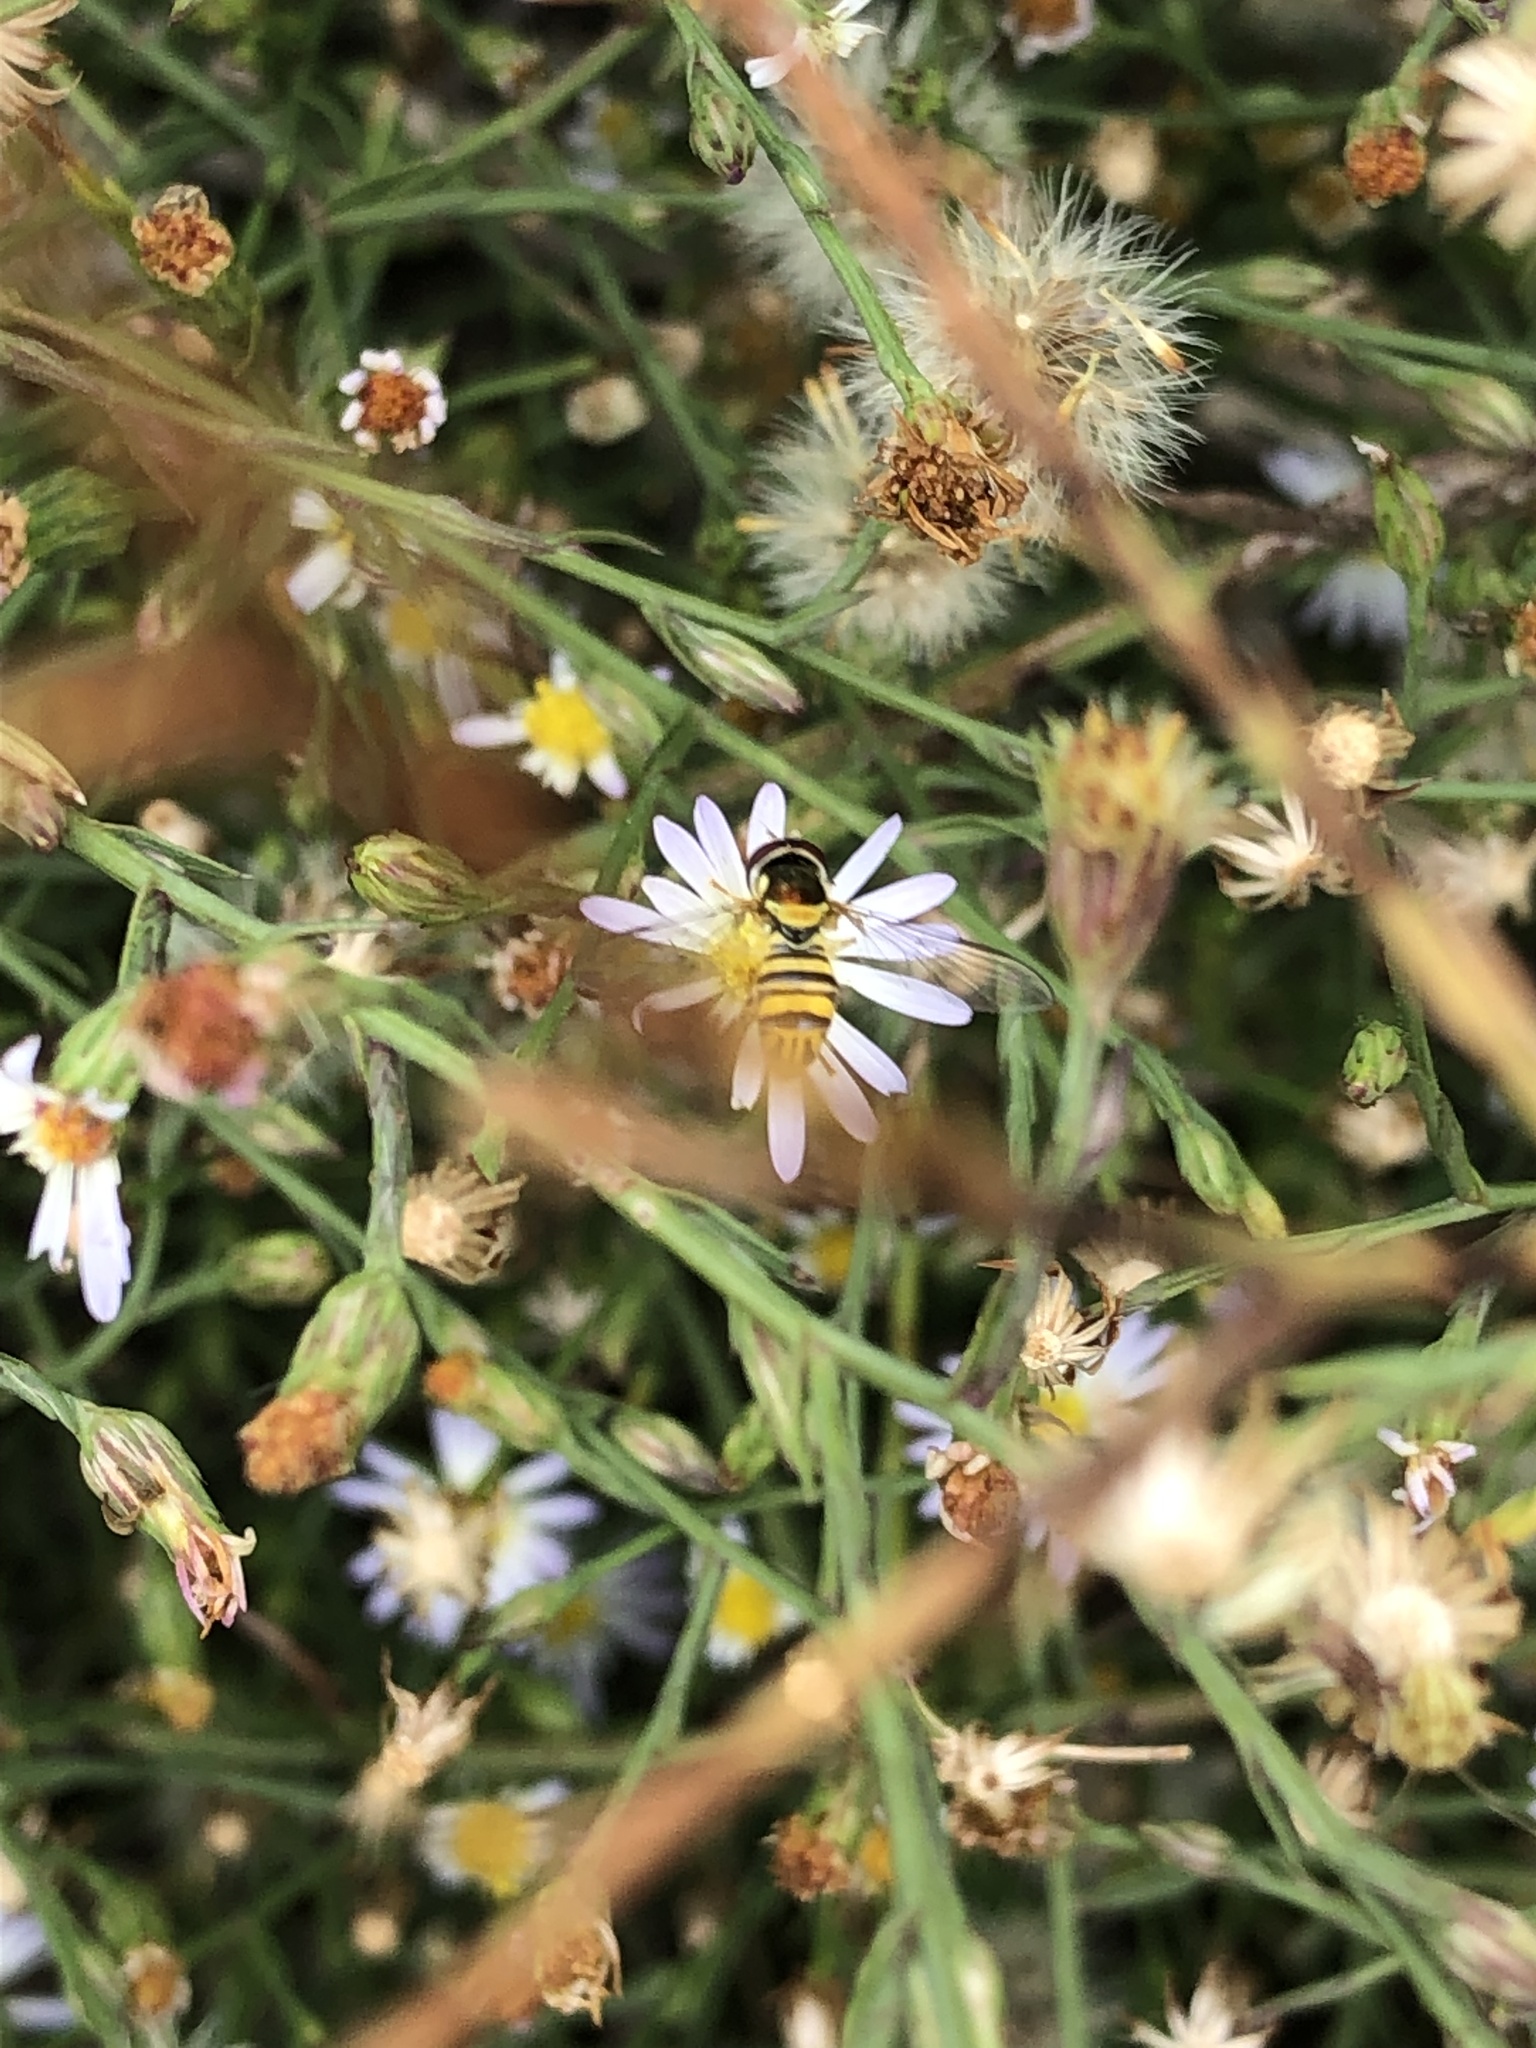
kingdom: Animalia
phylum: Arthropoda
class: Insecta
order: Diptera
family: Syrphidae
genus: Allograpta
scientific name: Allograpta obliqua
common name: Common oblique syrphid
